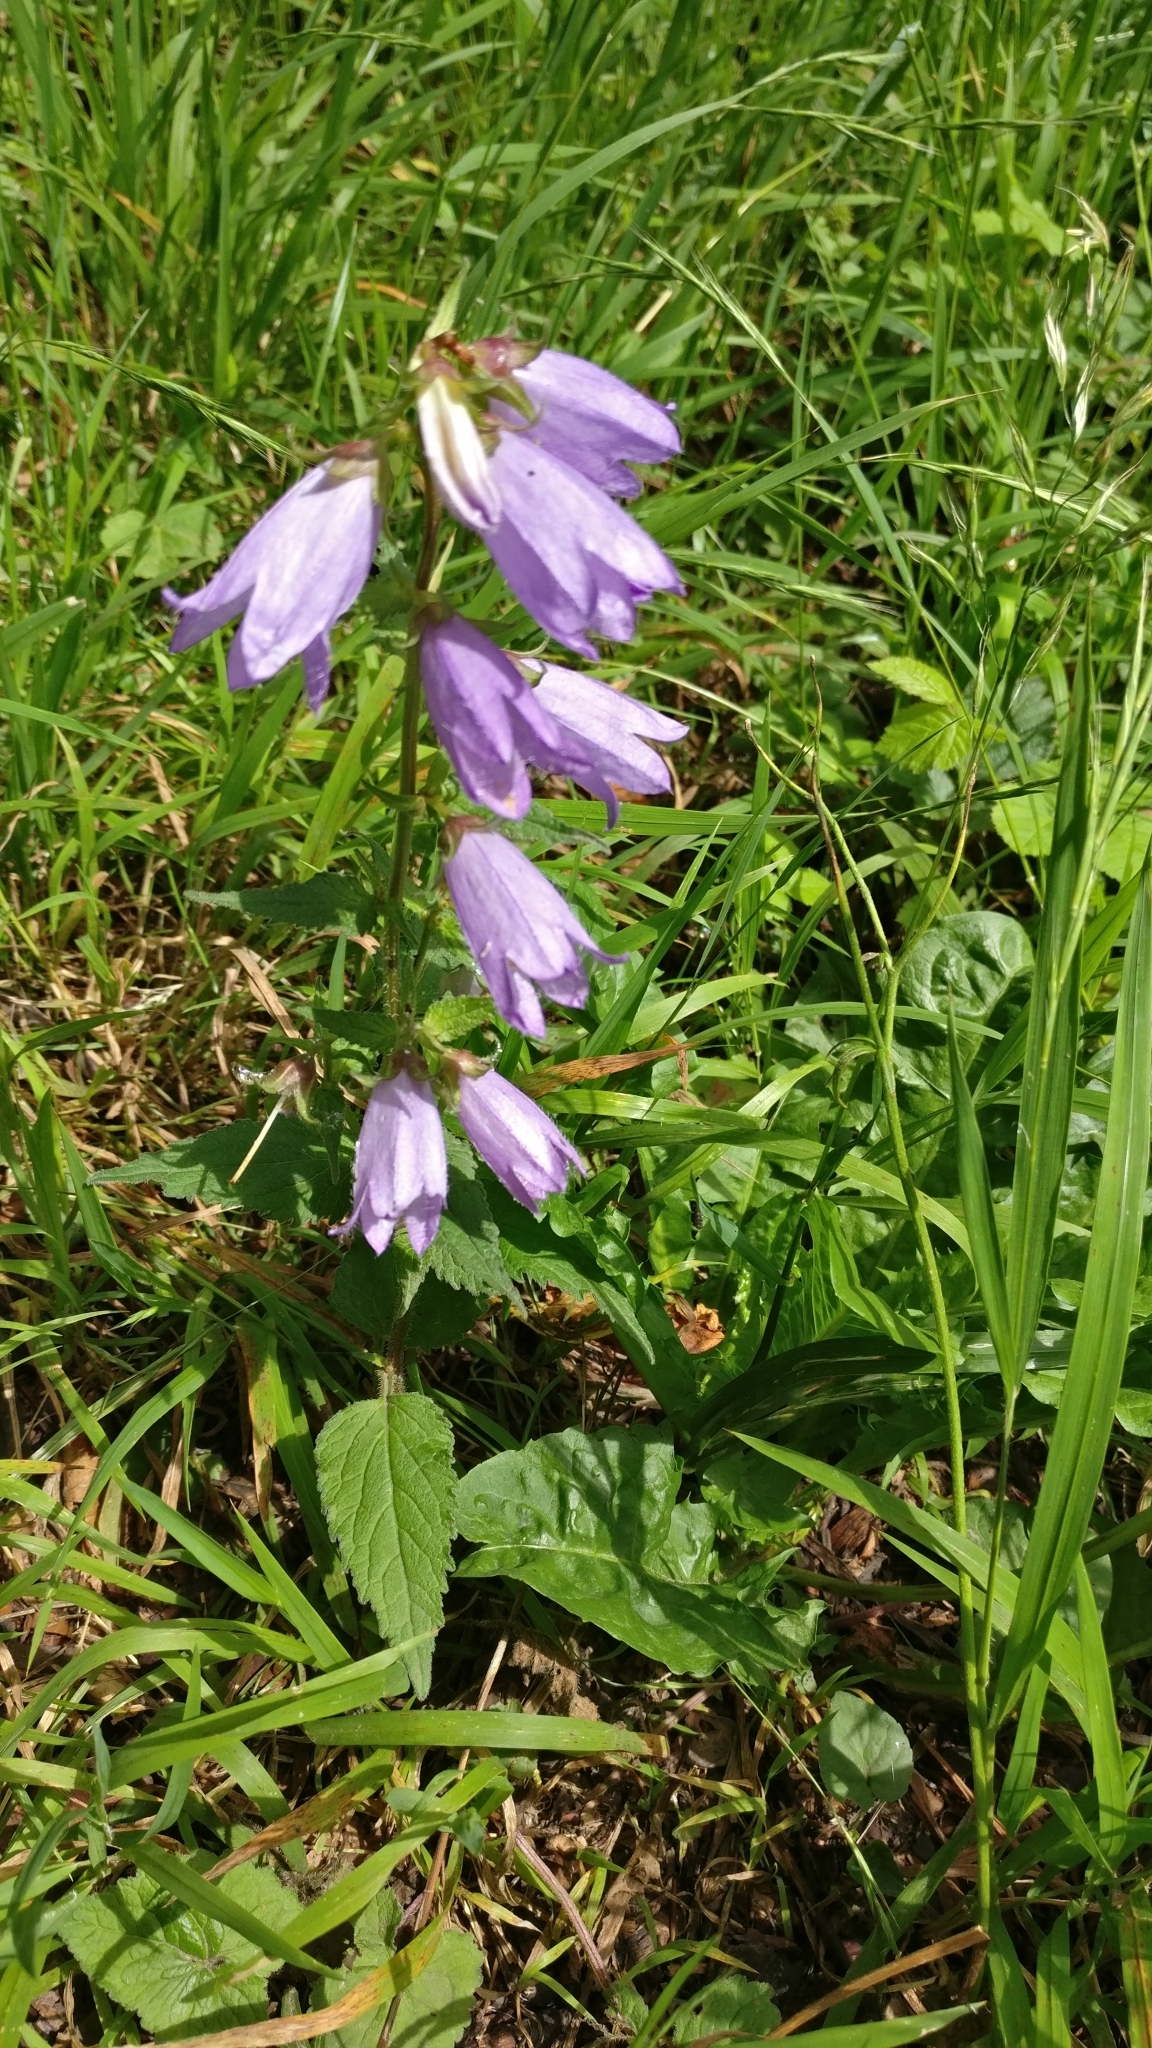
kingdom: Plantae
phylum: Tracheophyta
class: Magnoliopsida
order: Asterales
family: Campanulaceae
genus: Campanula
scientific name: Campanula trachelium
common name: Nettle-leaved bellflower
